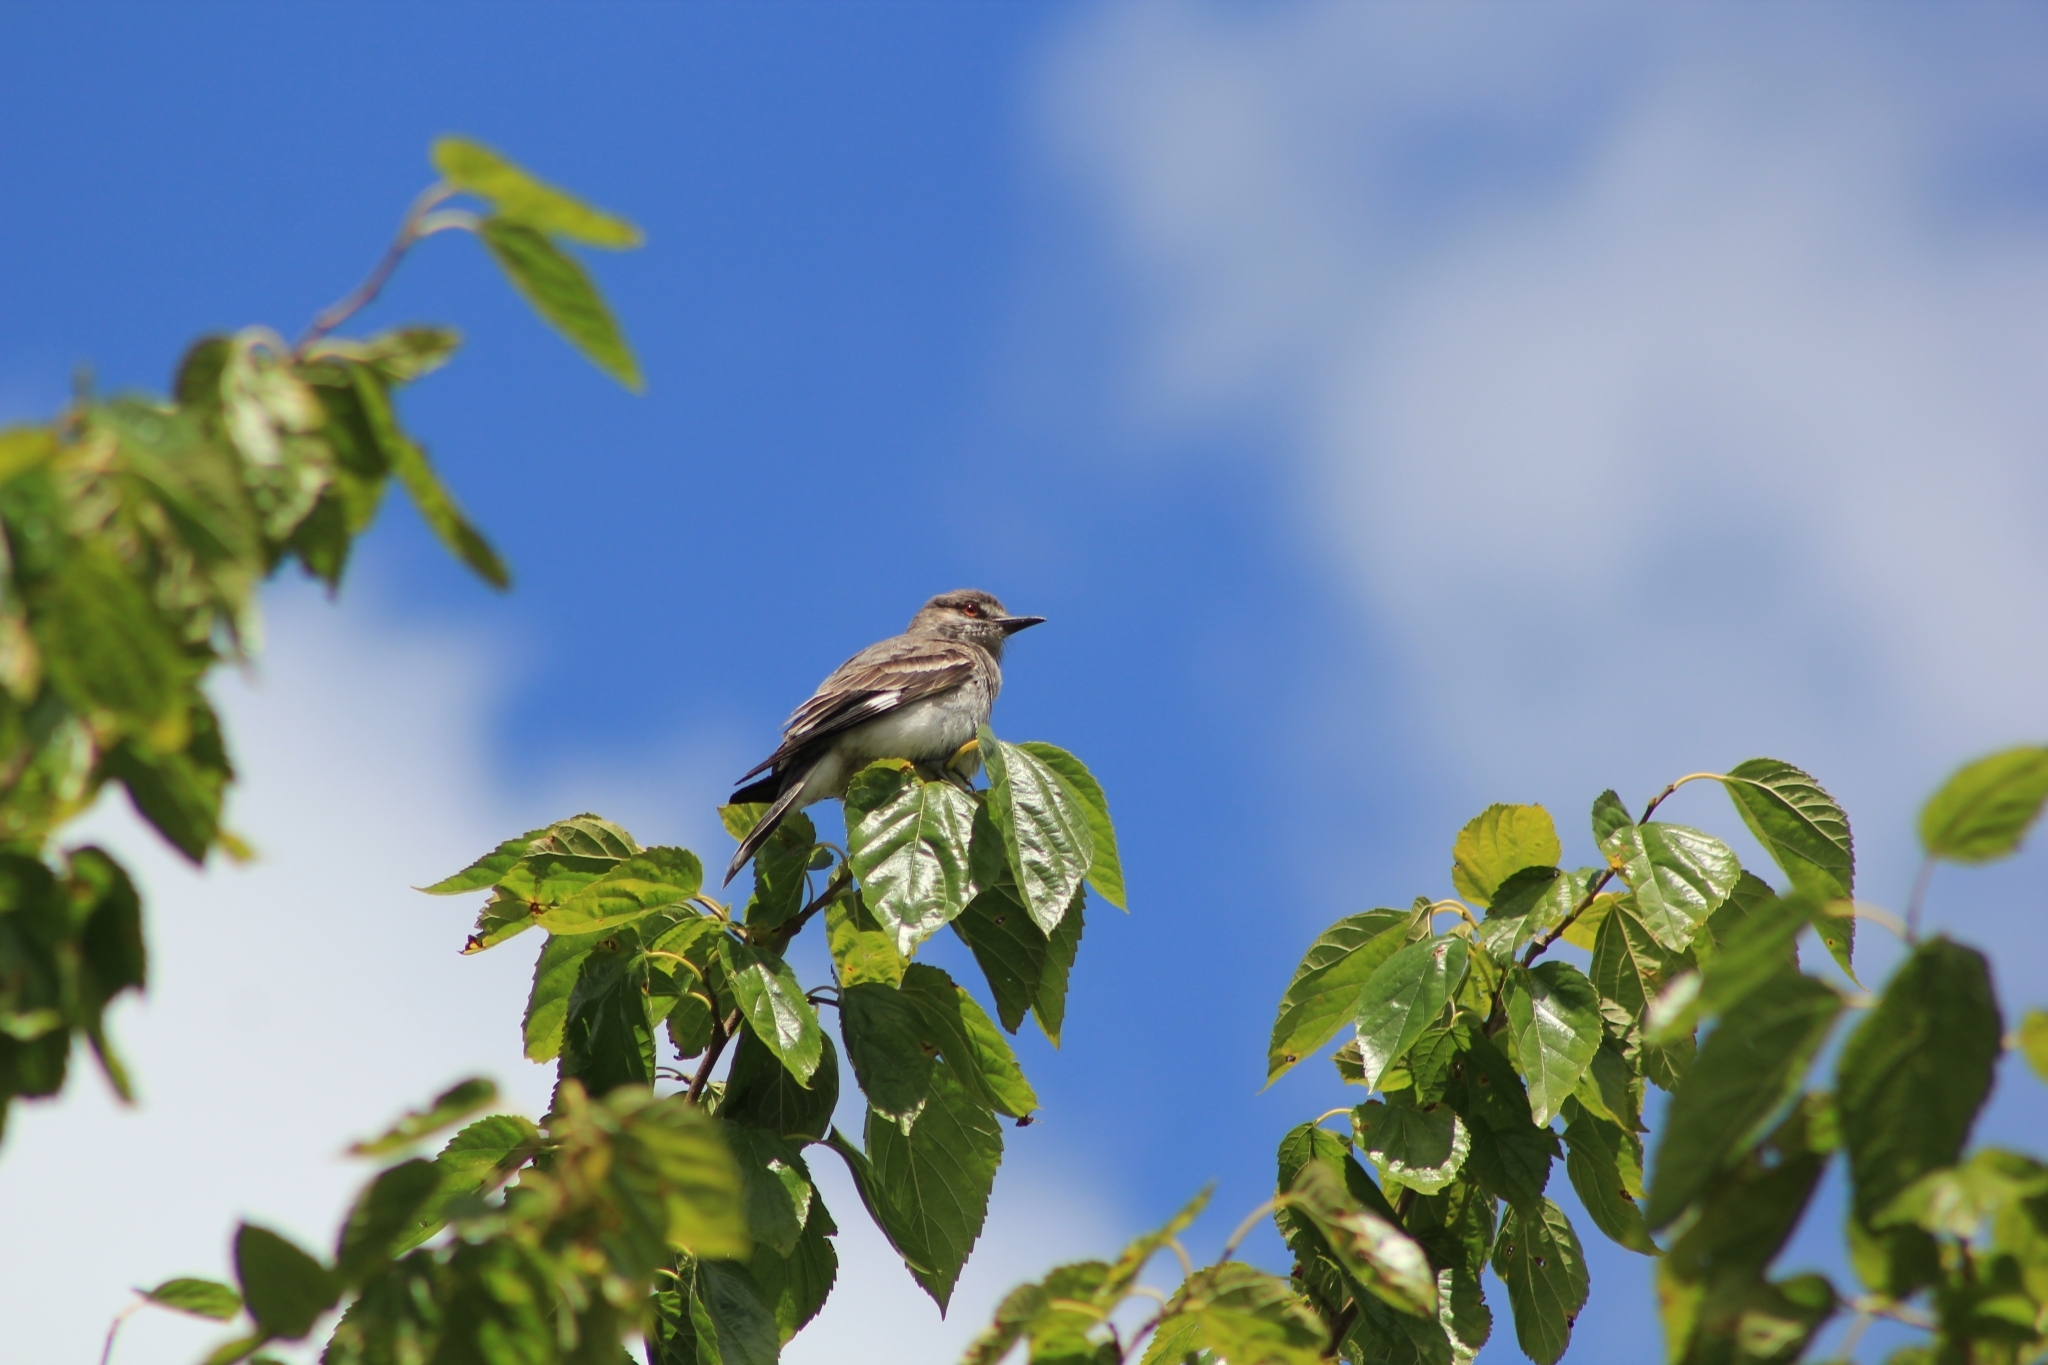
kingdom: Animalia
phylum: Chordata
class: Aves
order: Passeriformes
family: Tyrannidae
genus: Xolmis
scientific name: Xolmis cinereus
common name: Grey monjita
